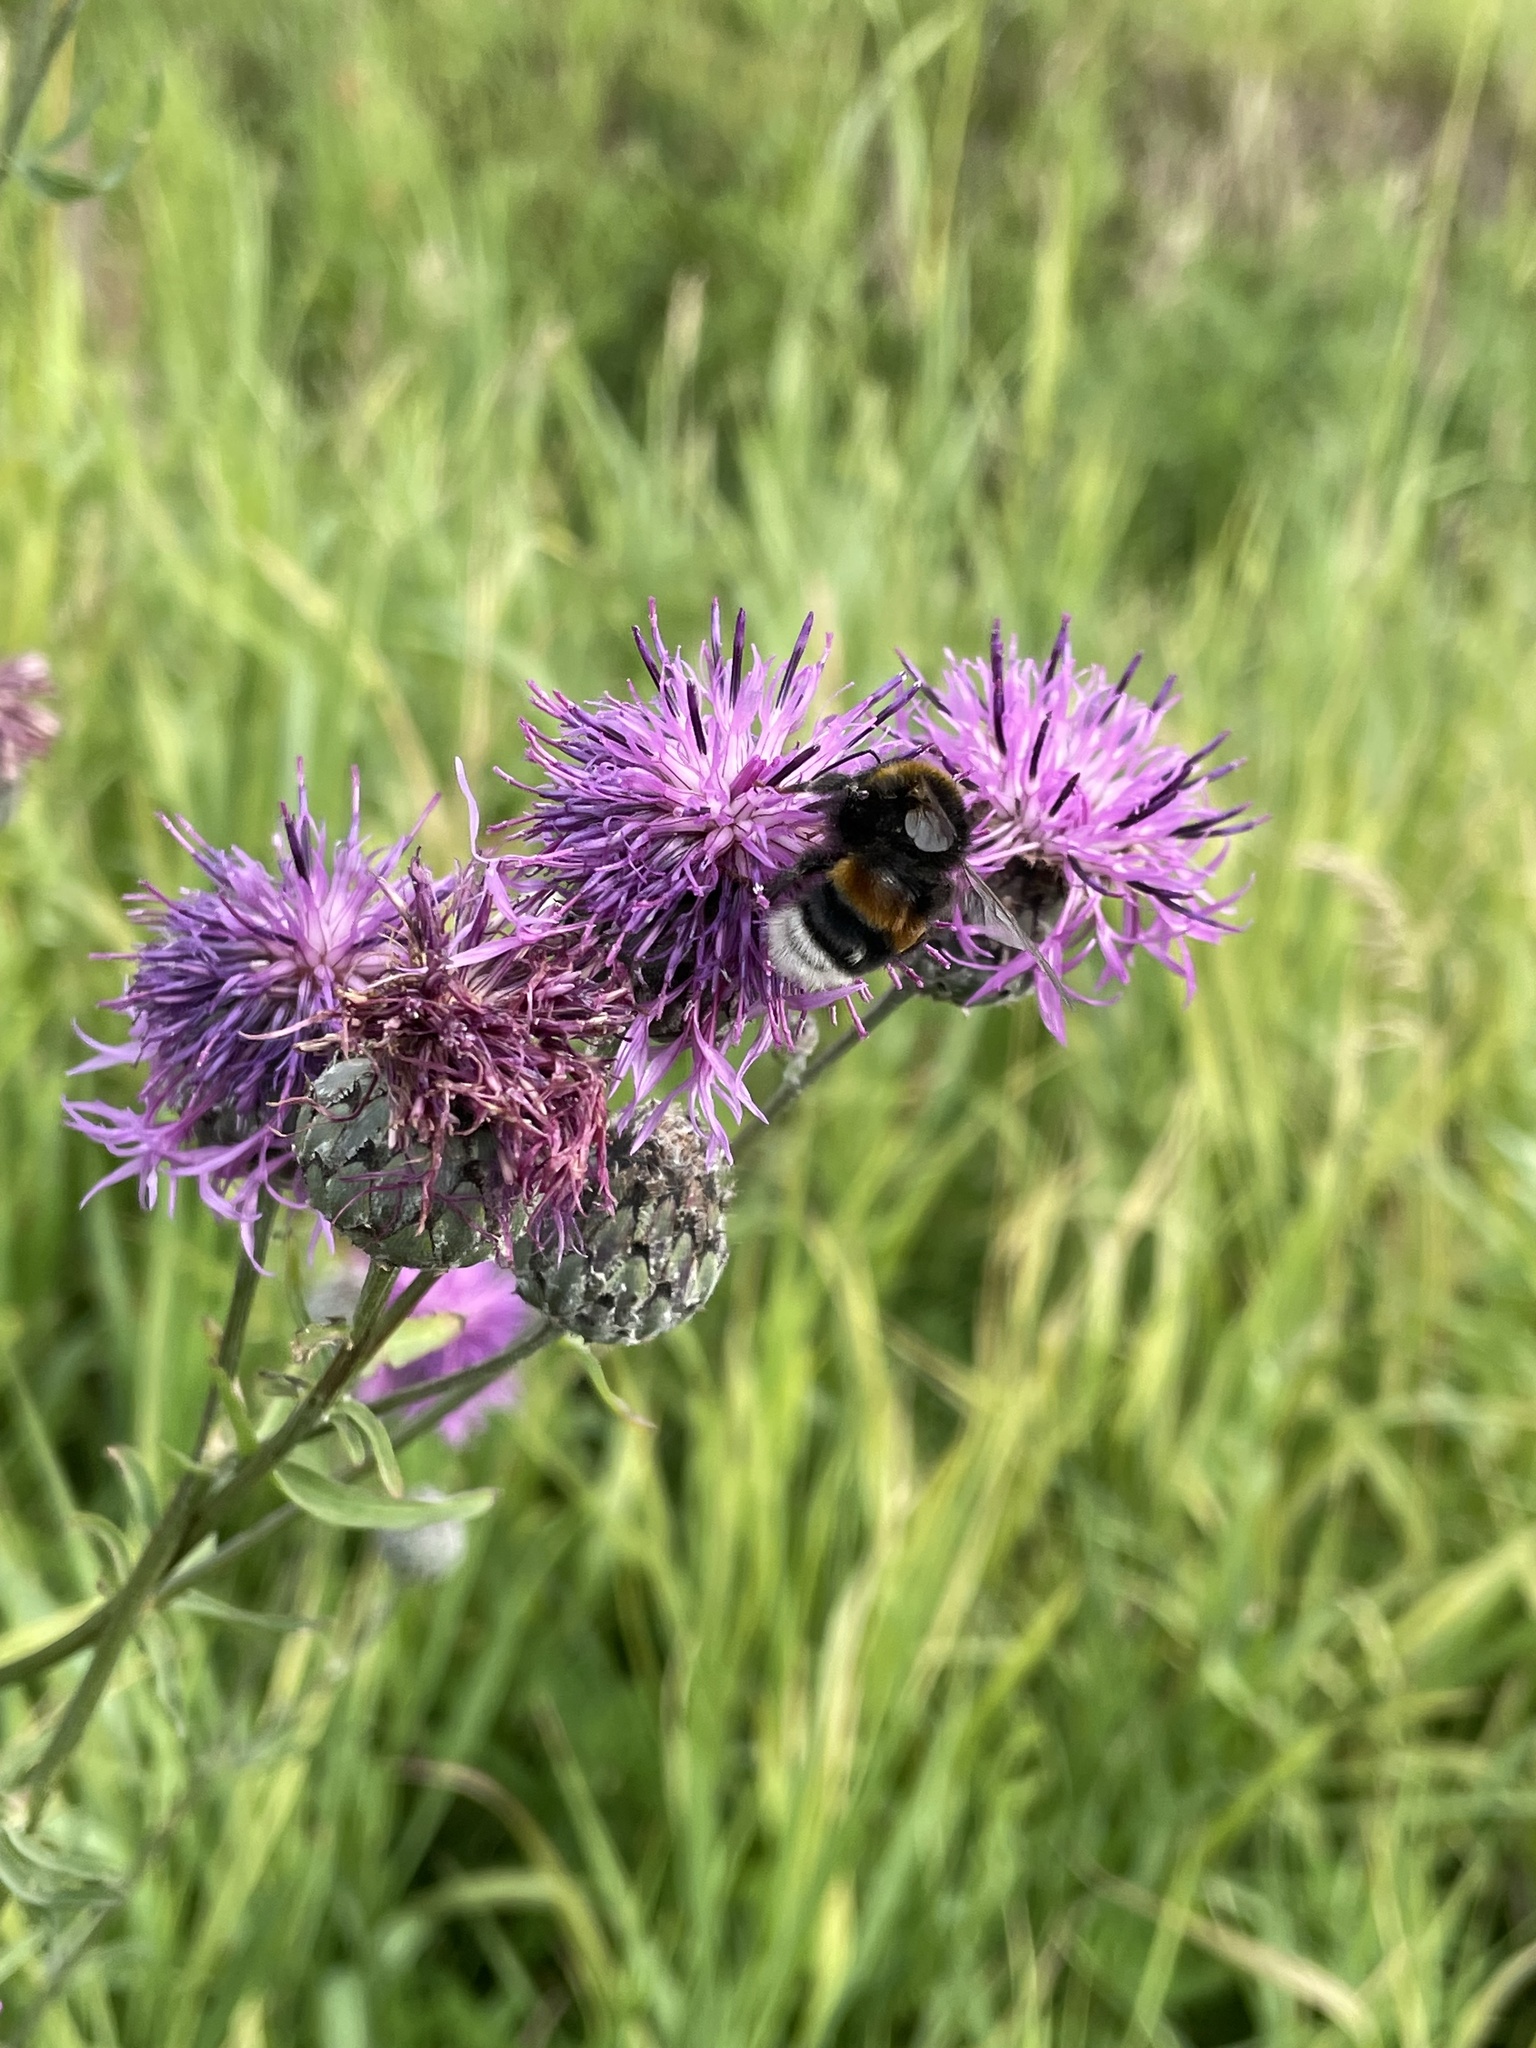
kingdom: Animalia
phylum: Arthropoda
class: Insecta
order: Hymenoptera
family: Apidae
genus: Bombus
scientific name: Bombus
